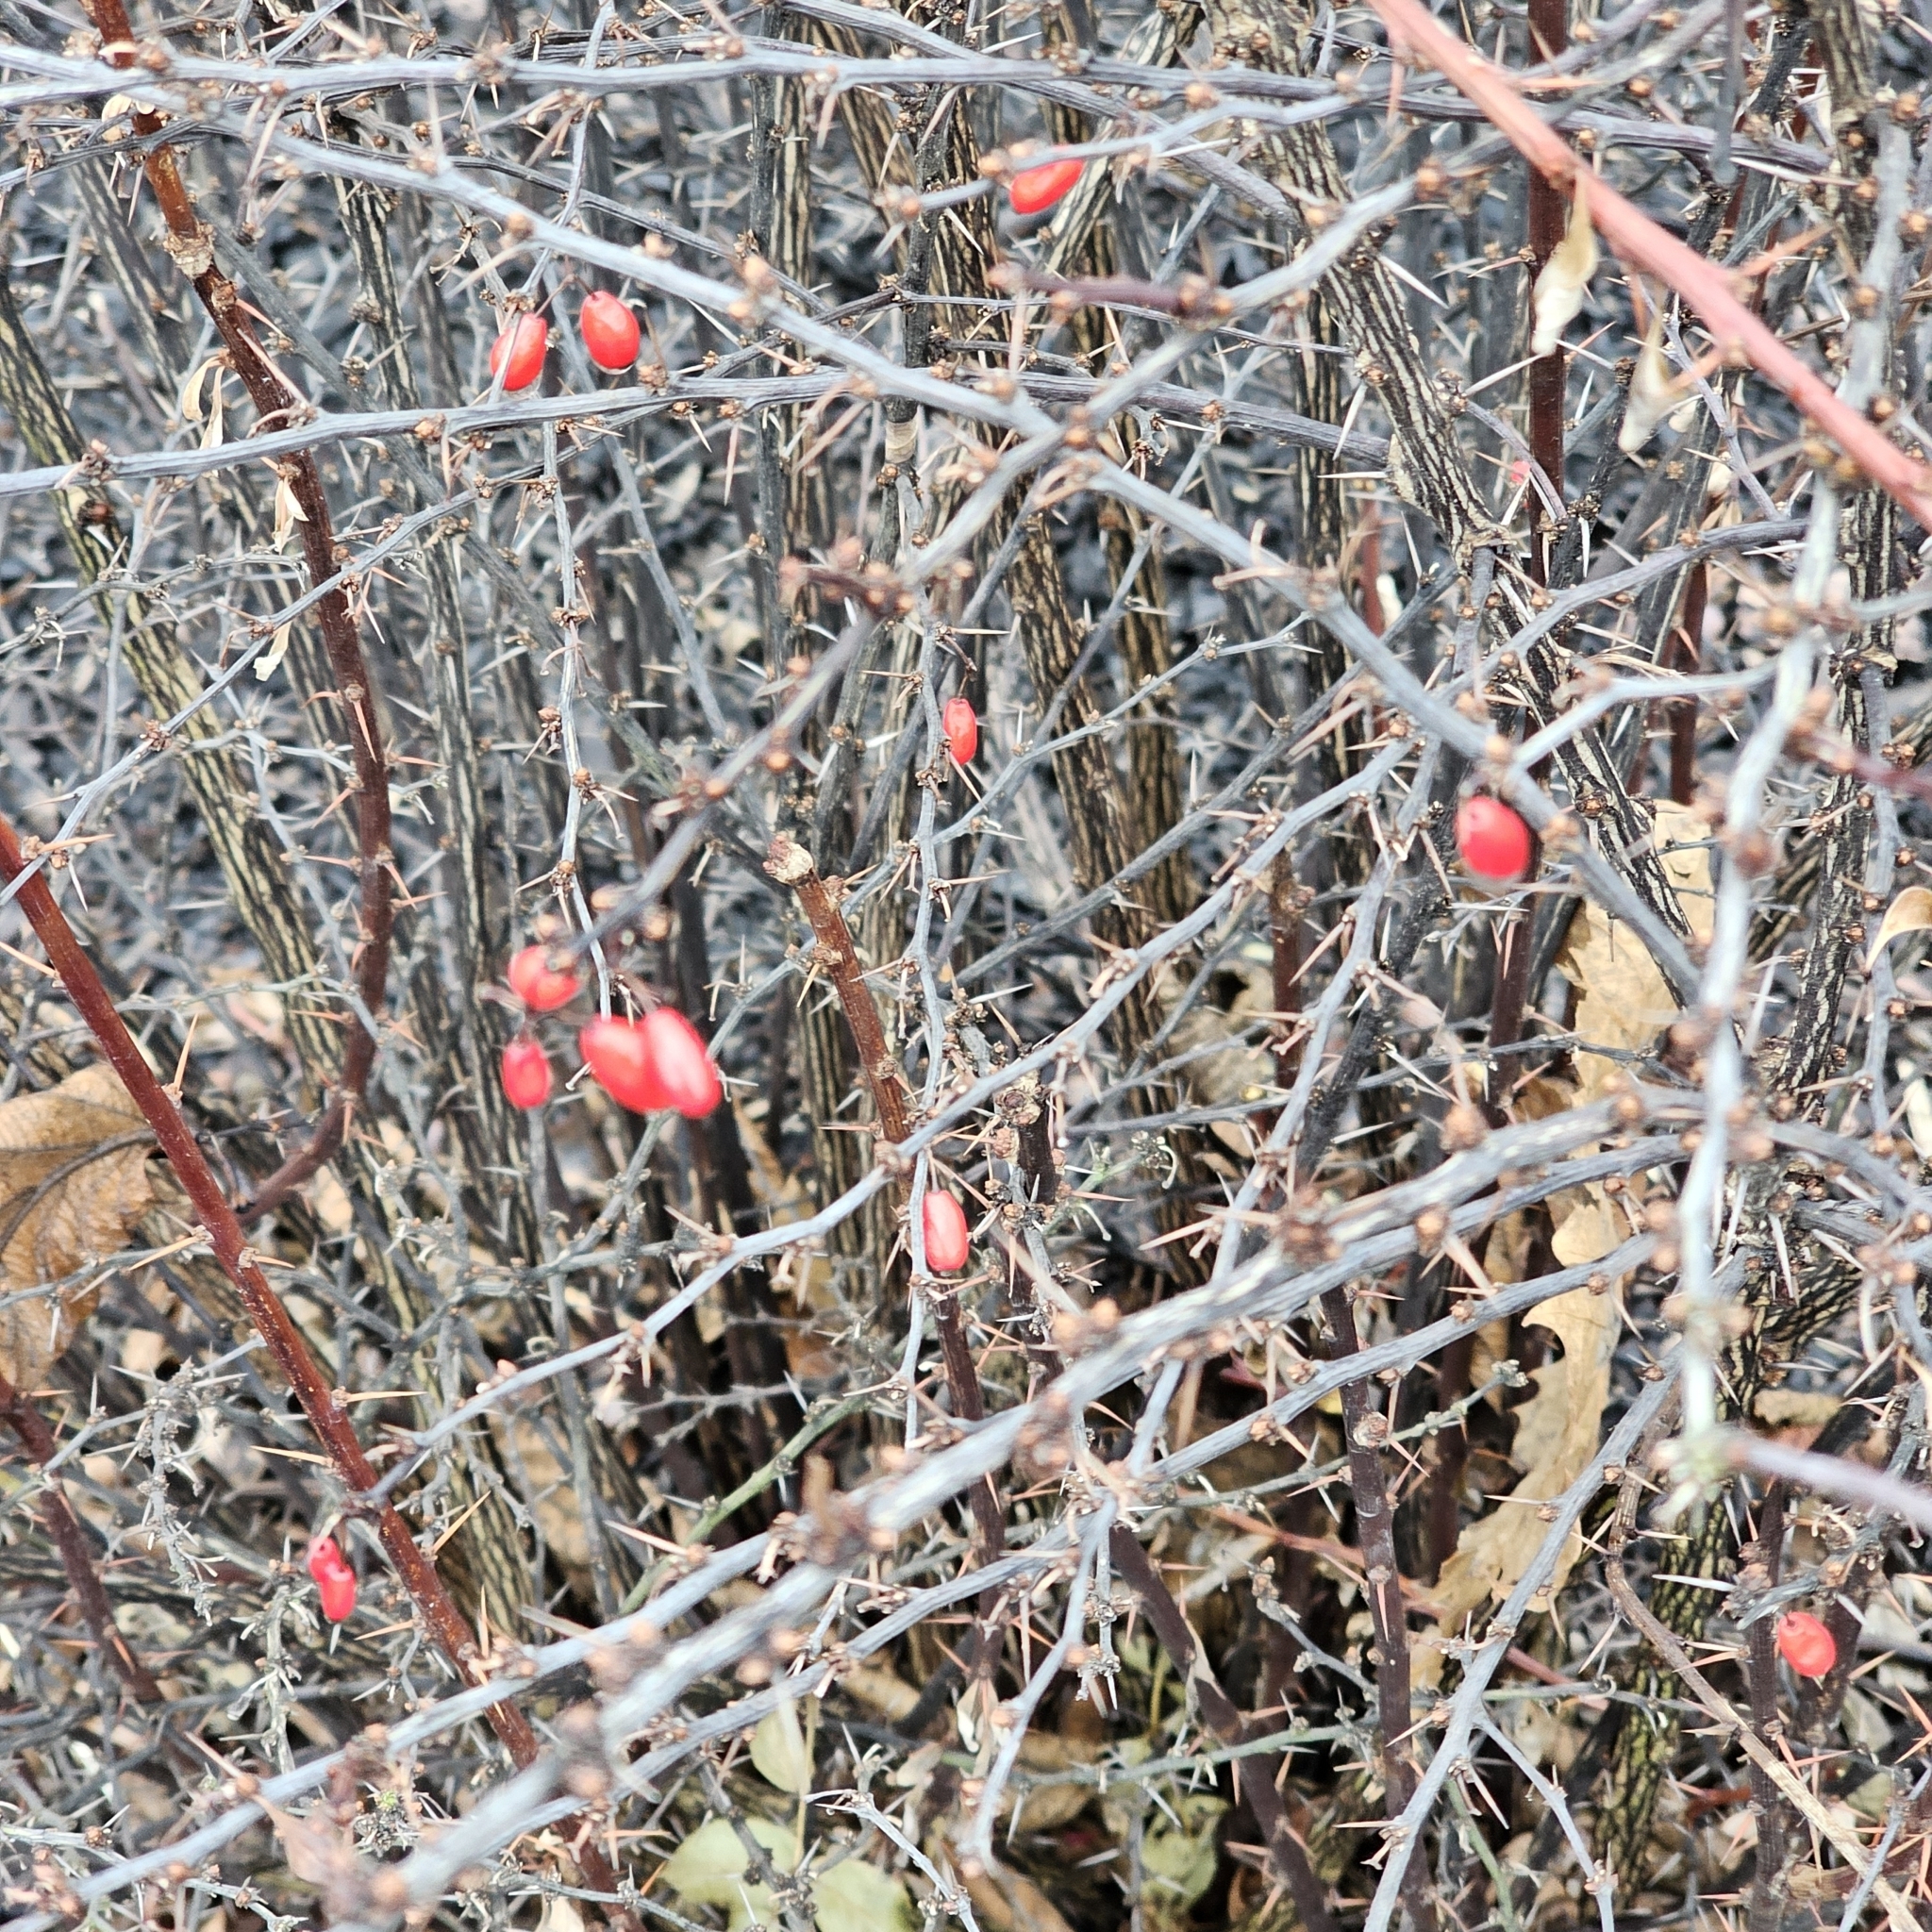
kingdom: Plantae
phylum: Tracheophyta
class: Magnoliopsida
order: Ranunculales
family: Berberidaceae
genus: Berberis
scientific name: Berberis thunbergii
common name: Japanese barberry
